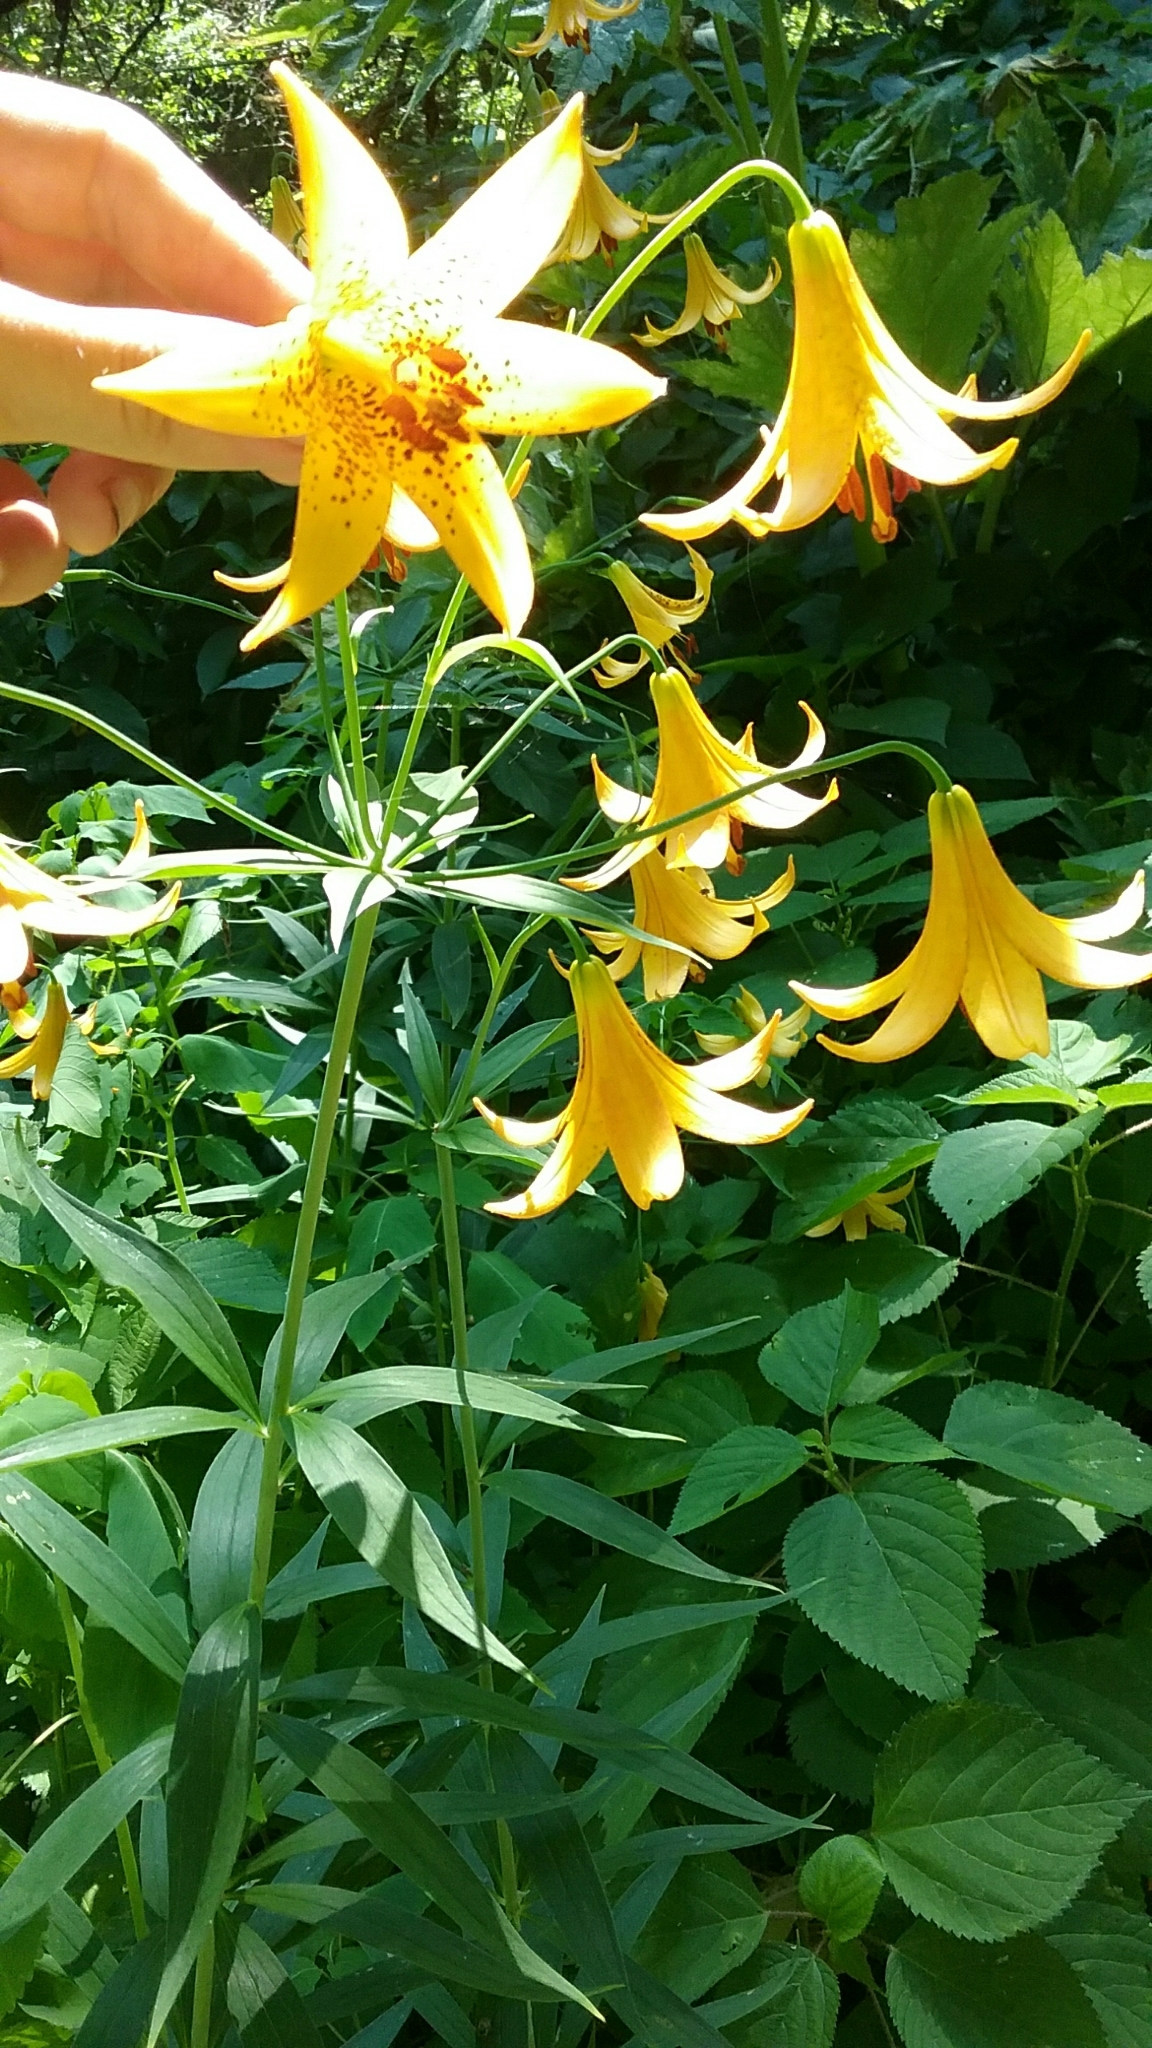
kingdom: Plantae
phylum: Tracheophyta
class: Liliopsida
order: Liliales
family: Liliaceae
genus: Lilium
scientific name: Lilium canadense
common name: Canada lily
